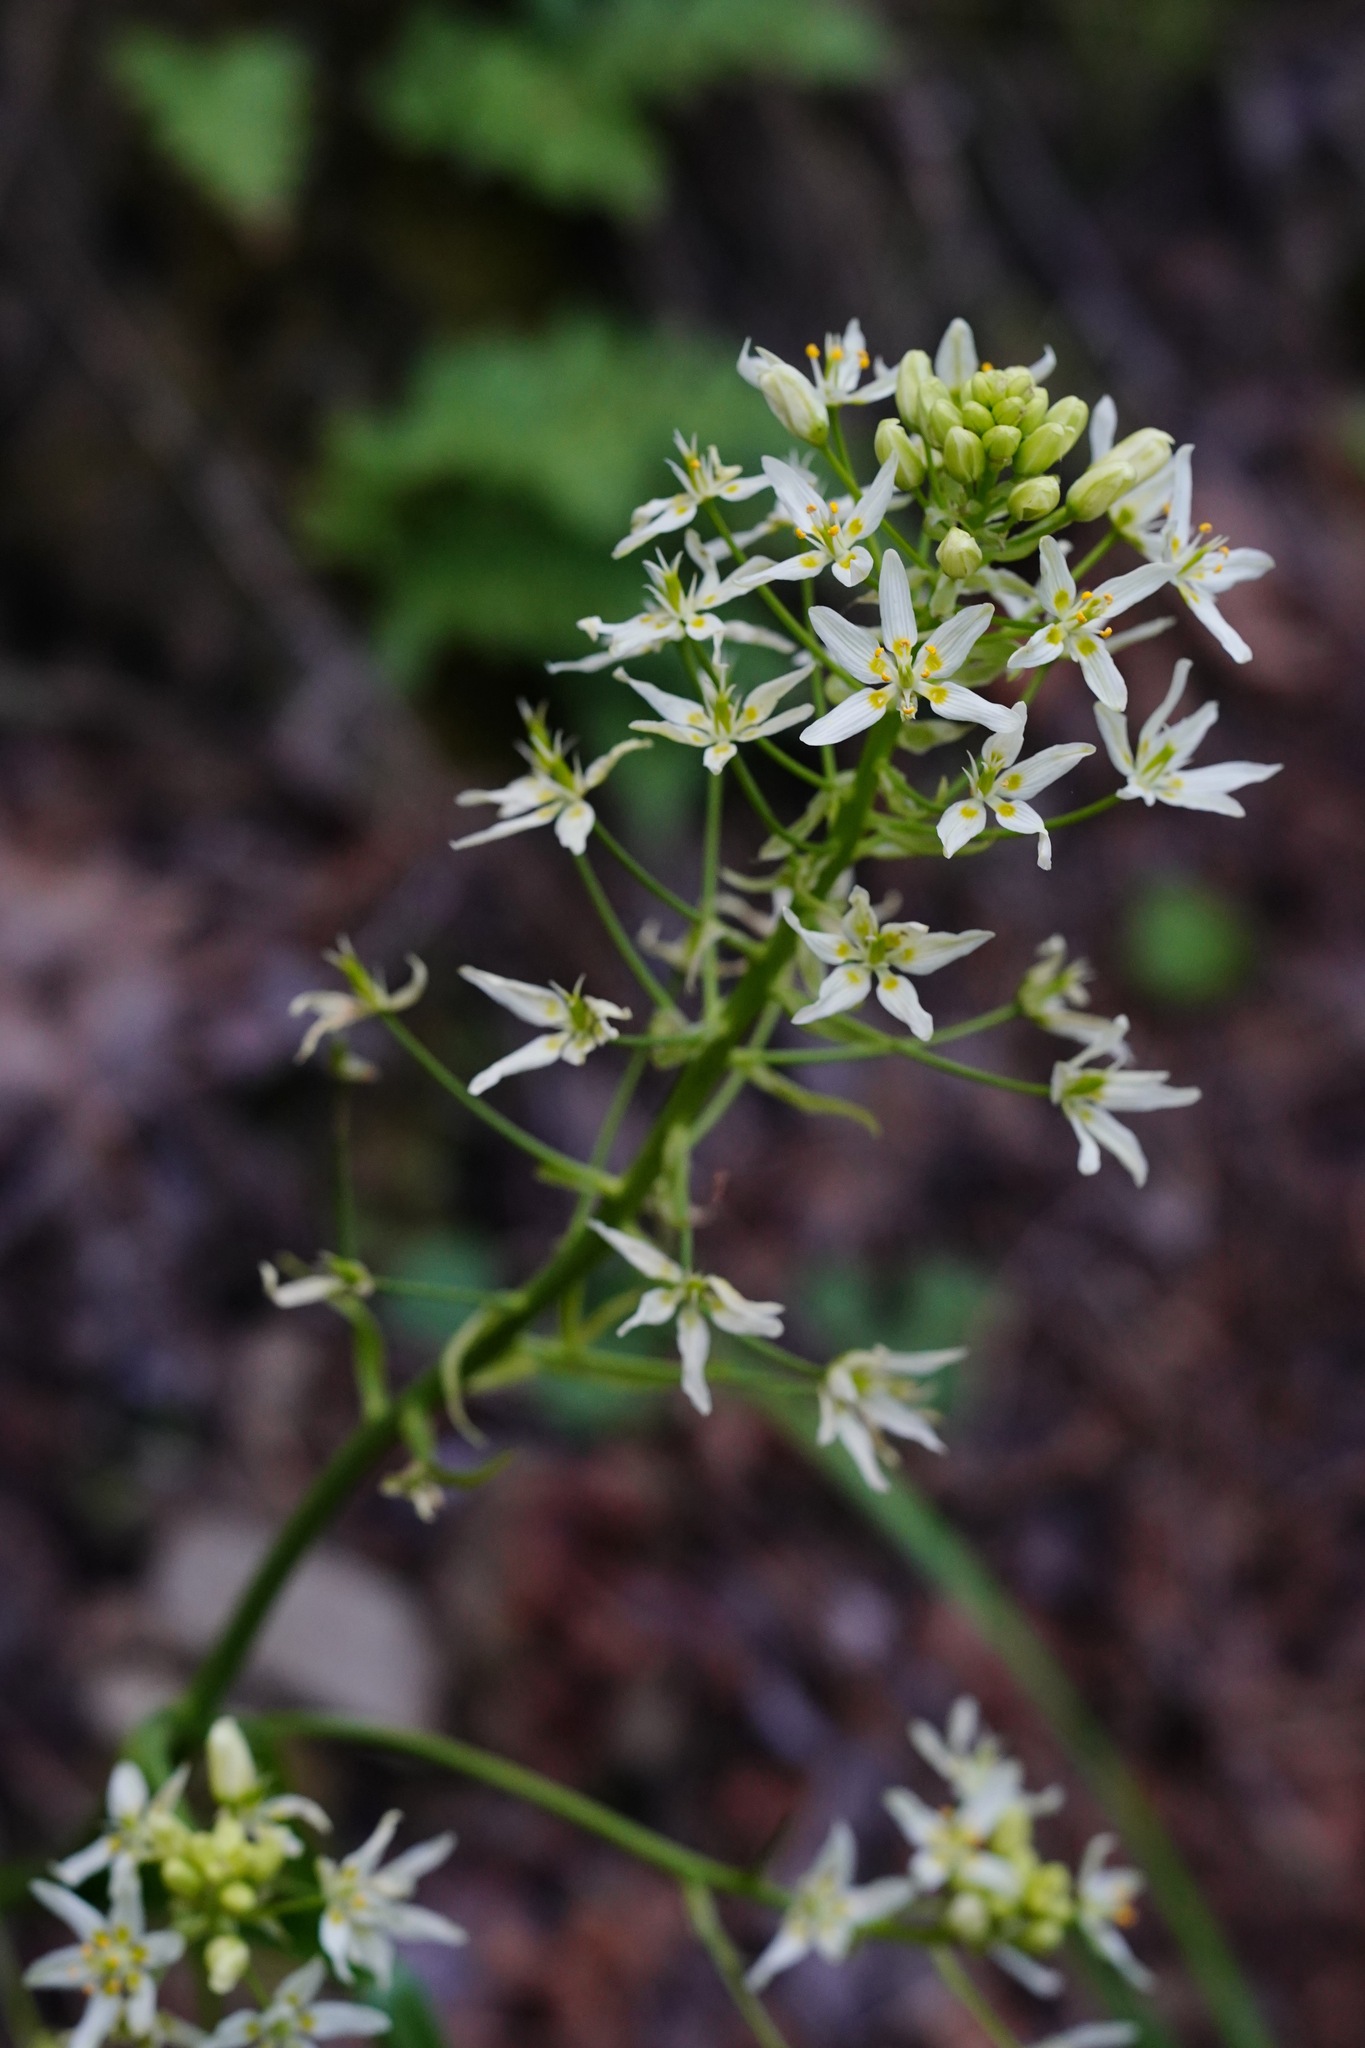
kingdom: Plantae
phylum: Tracheophyta
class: Liliopsida
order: Liliales
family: Melanthiaceae
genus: Toxicoscordion
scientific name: Toxicoscordion fremontii
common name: Fremont's death camas
